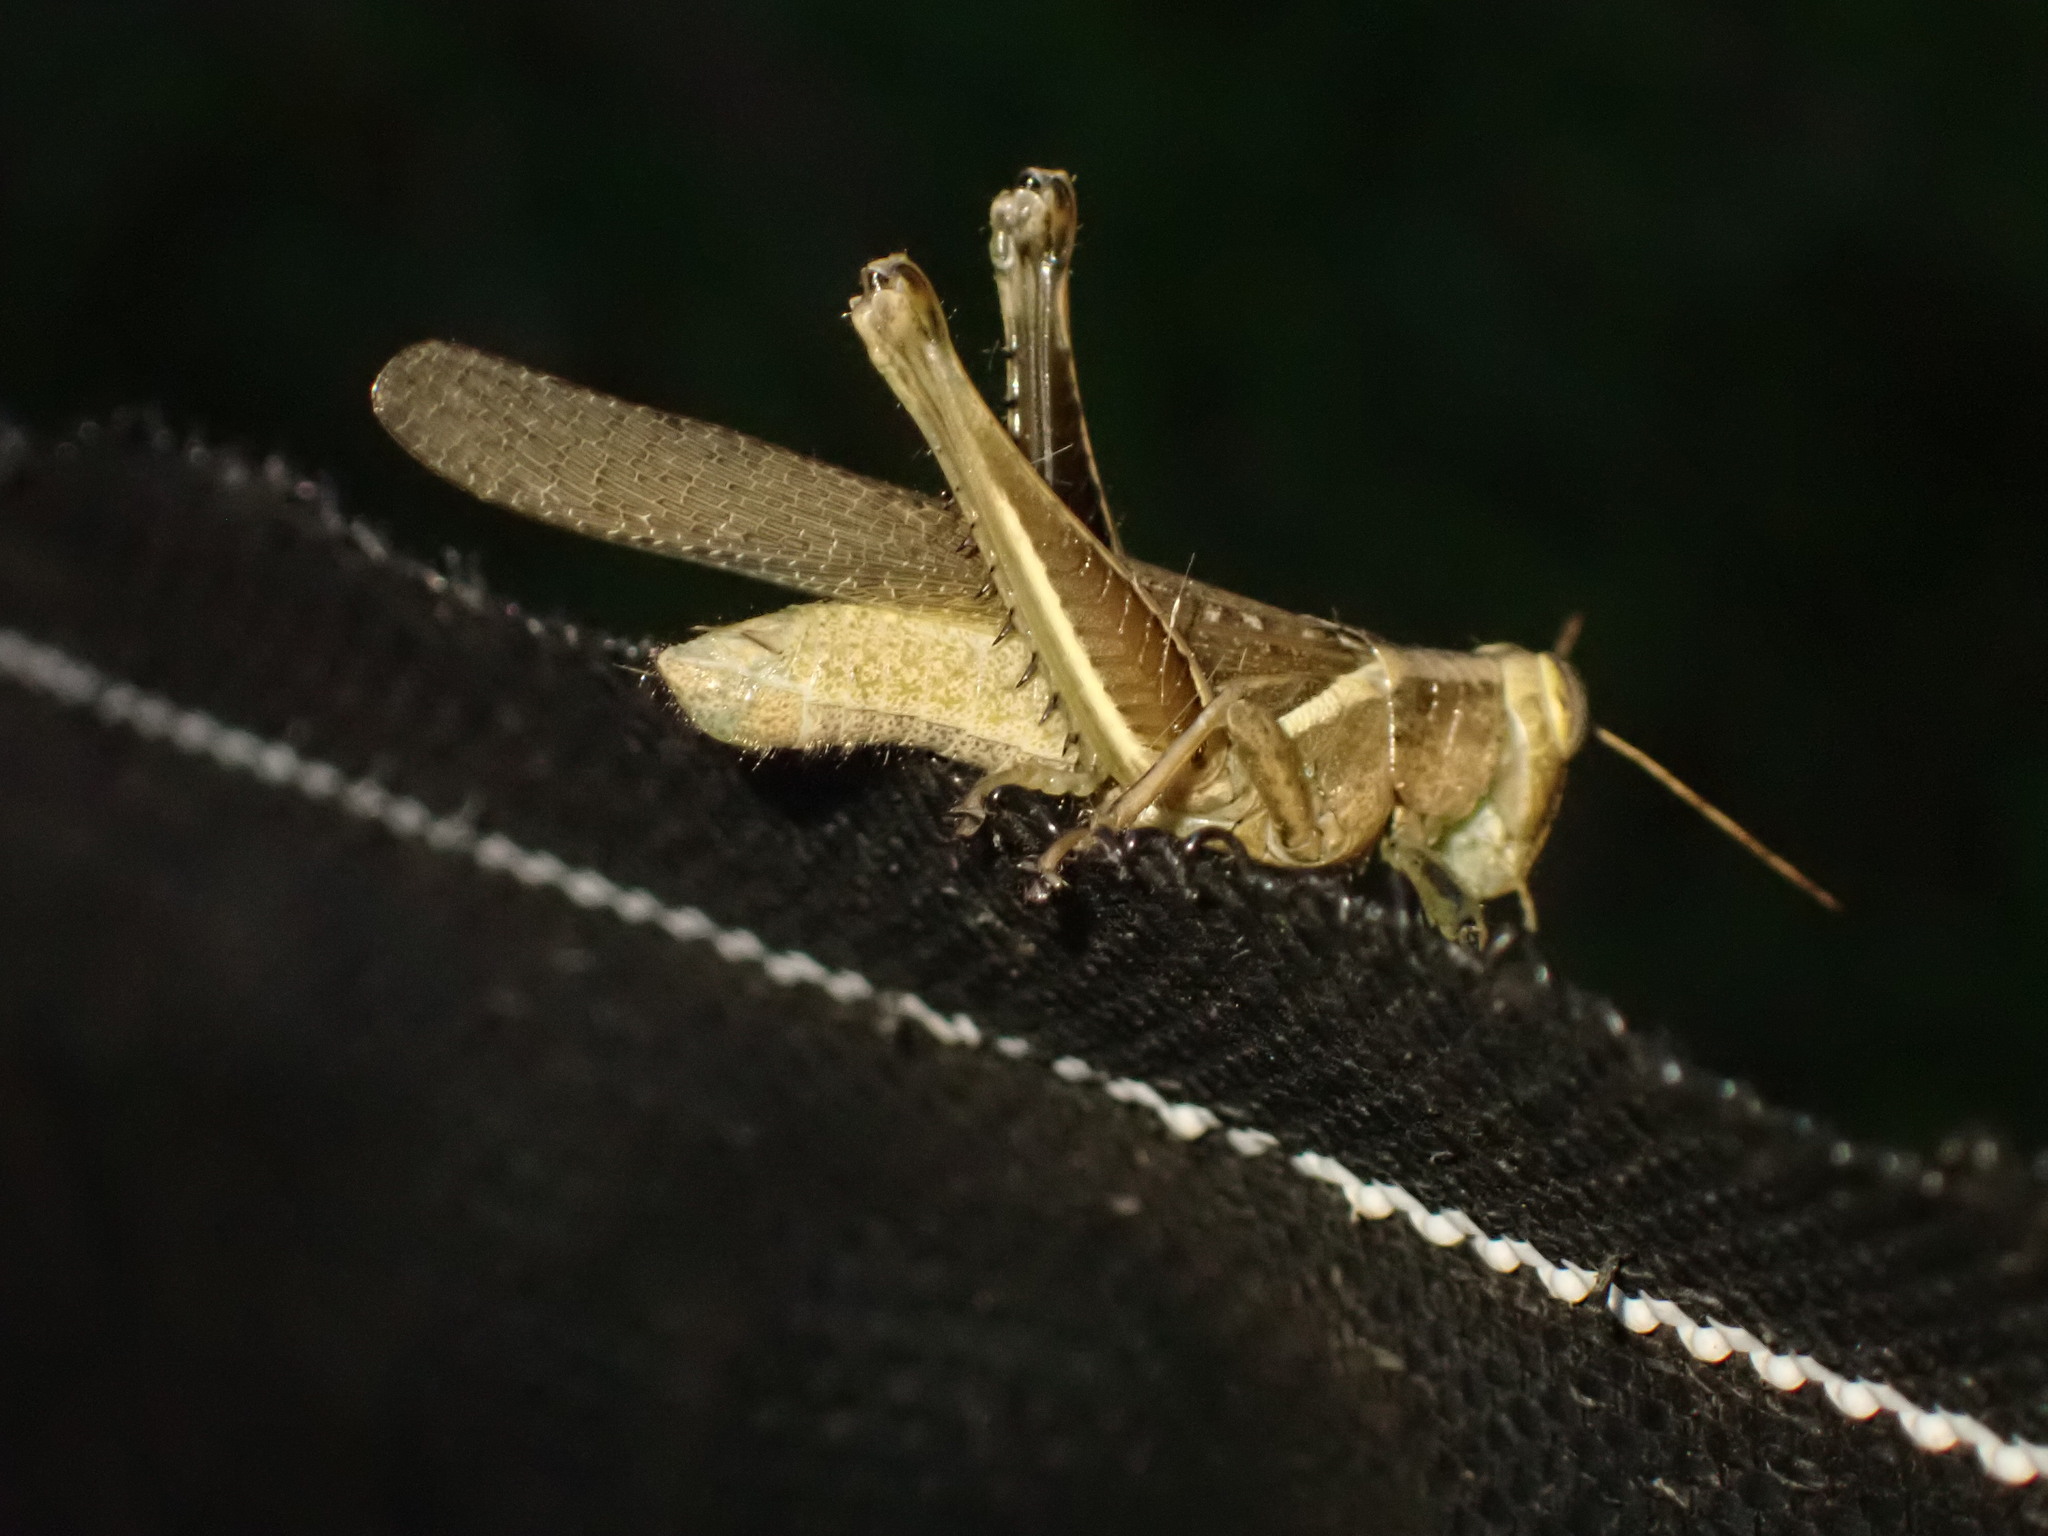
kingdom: Animalia
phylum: Arthropoda
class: Insecta
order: Orthoptera
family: Acrididae
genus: Abracris
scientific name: Abracris flavolineata
